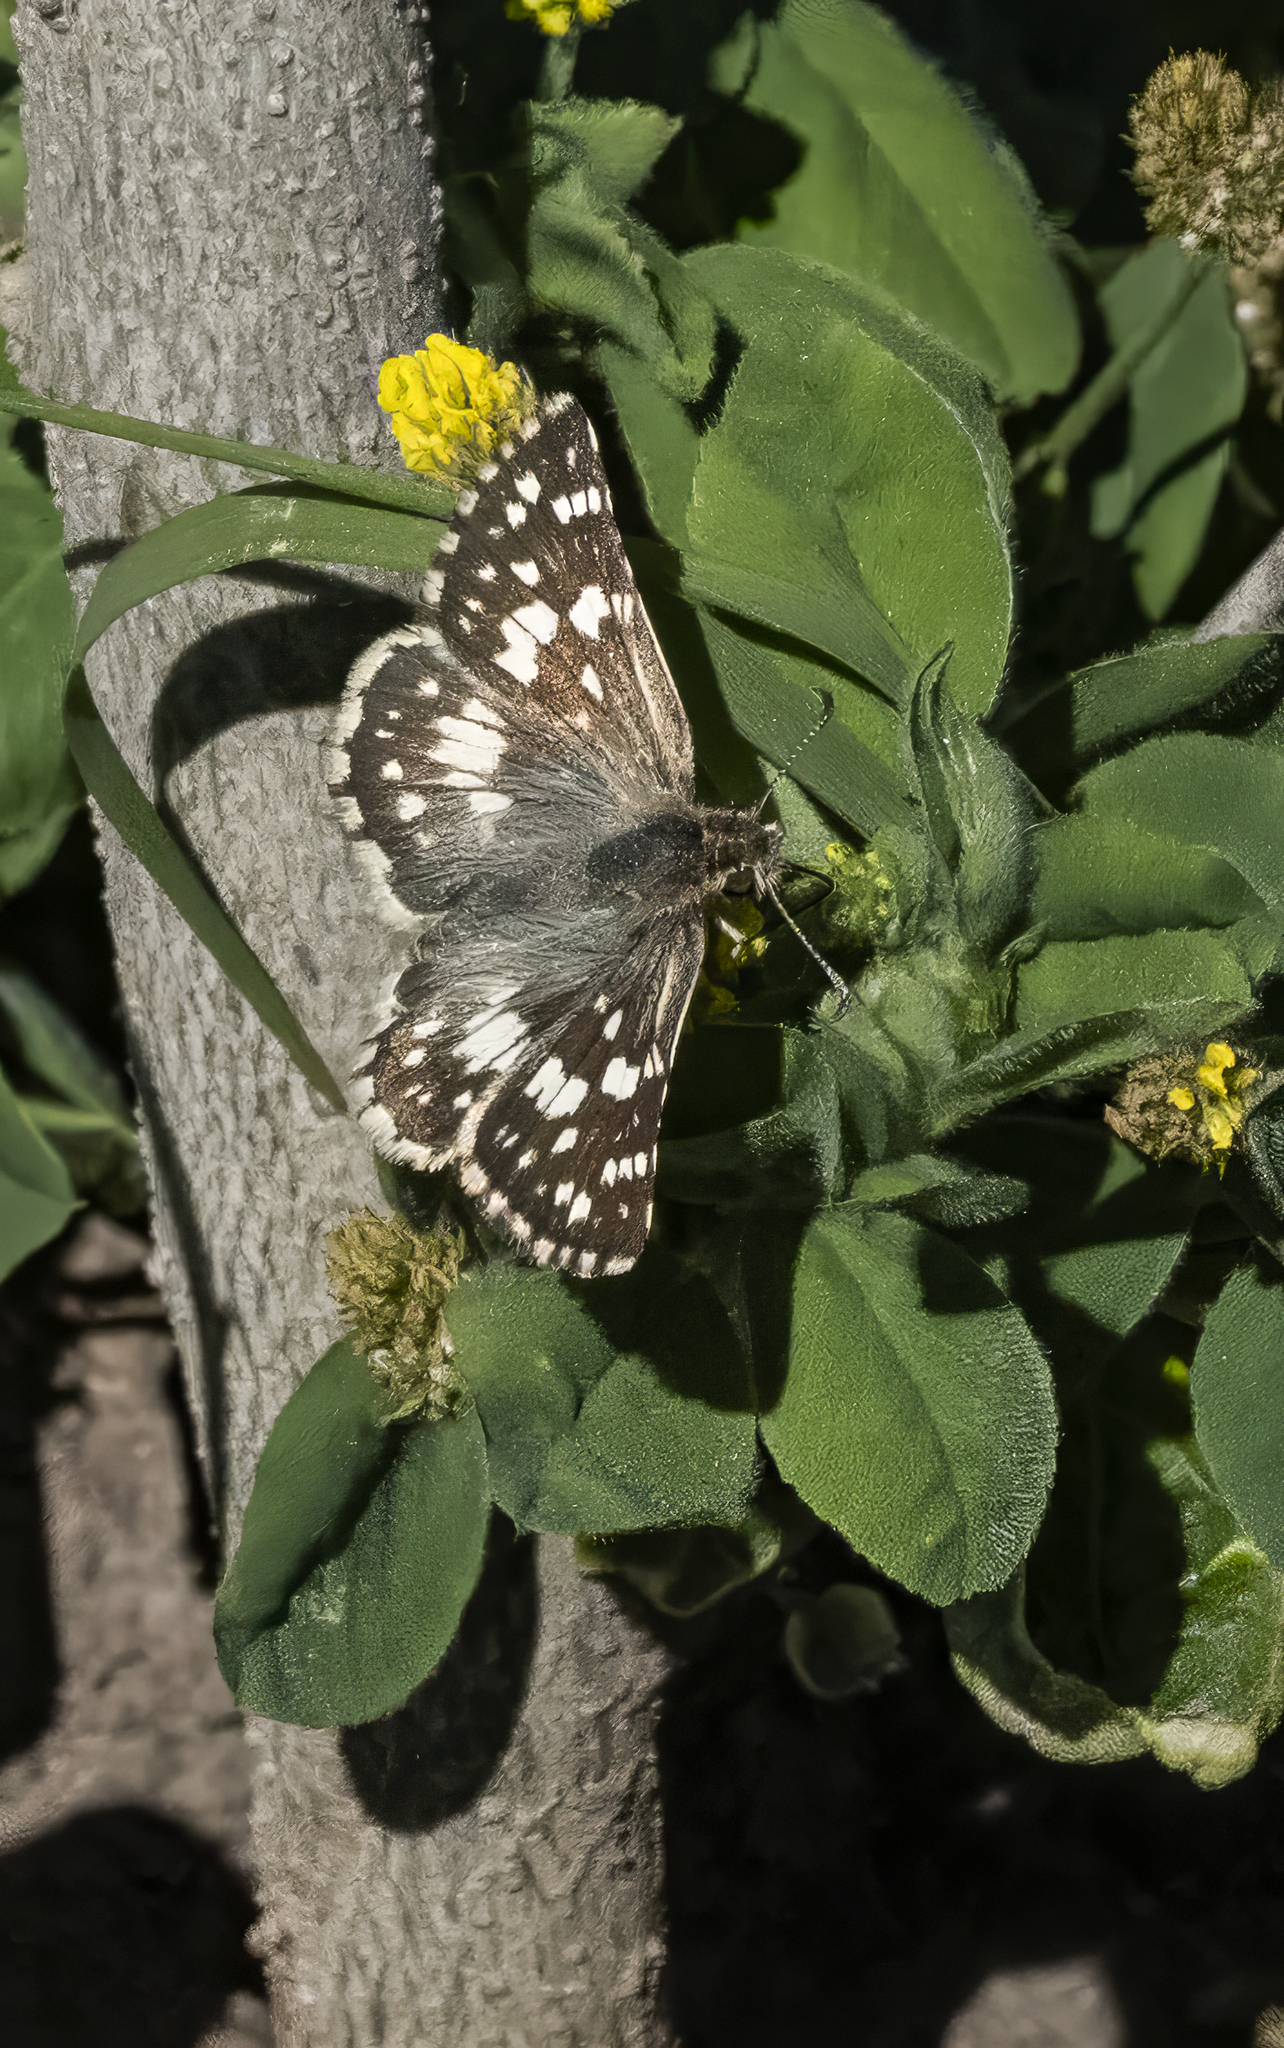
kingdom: Animalia
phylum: Arthropoda
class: Insecta
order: Lepidoptera
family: Hesperiidae
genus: Burnsius
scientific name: Burnsius orcynoides
